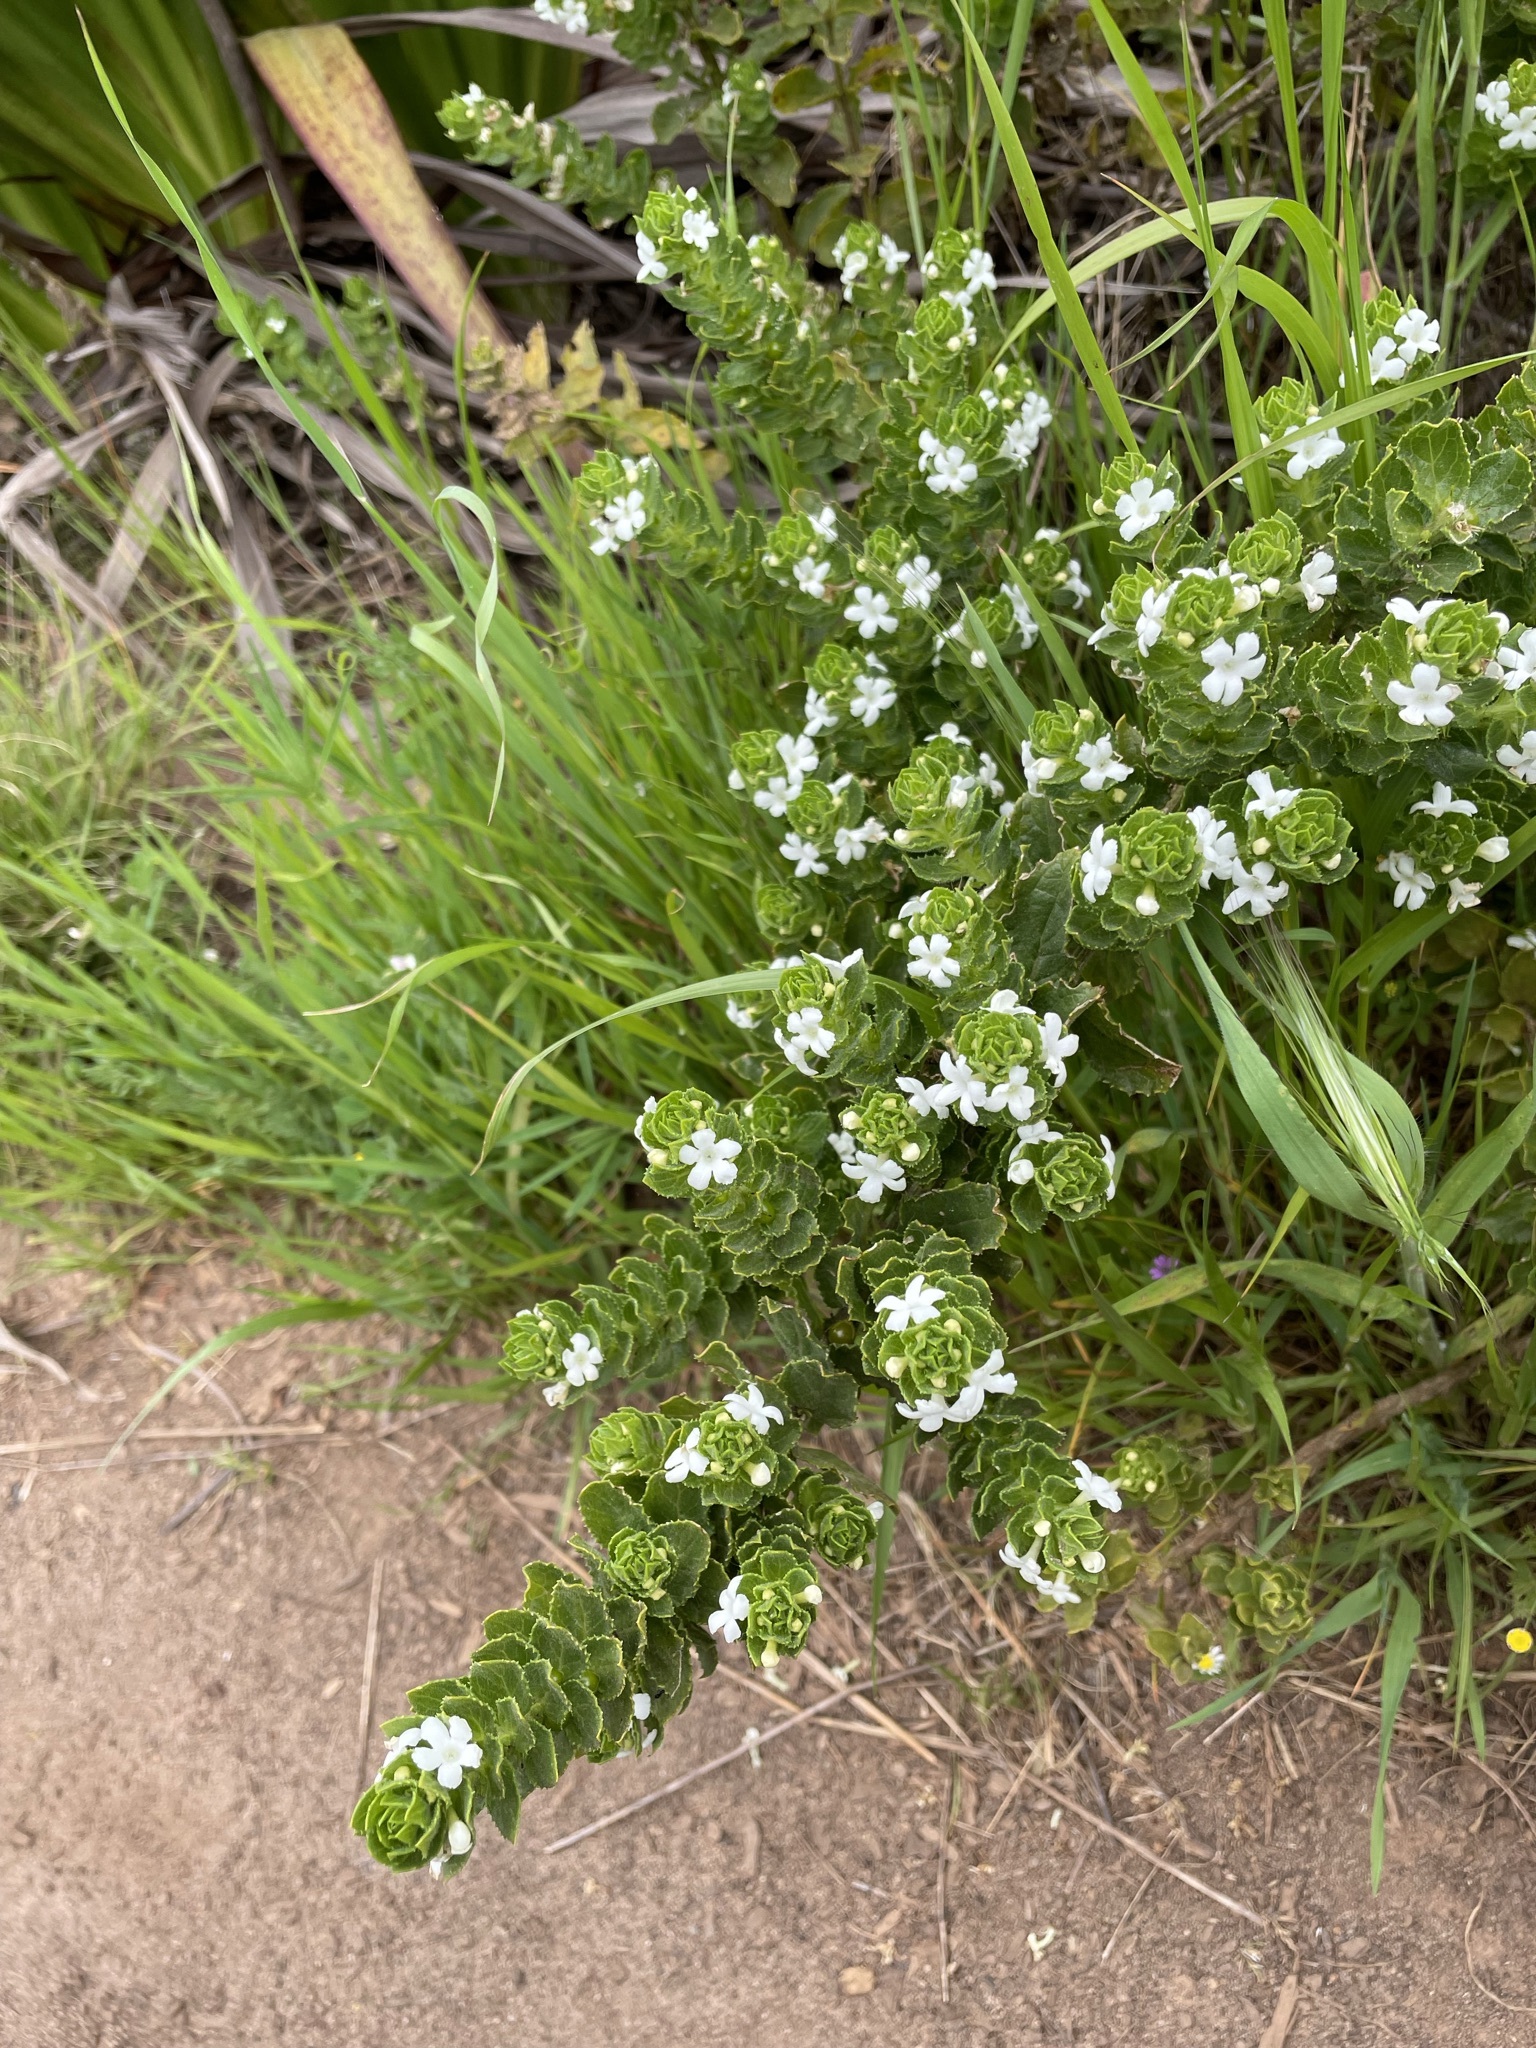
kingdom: Plantae
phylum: Tracheophyta
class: Magnoliopsida
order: Lamiales
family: Scrophulariaceae
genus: Oftia
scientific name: Oftia africana
